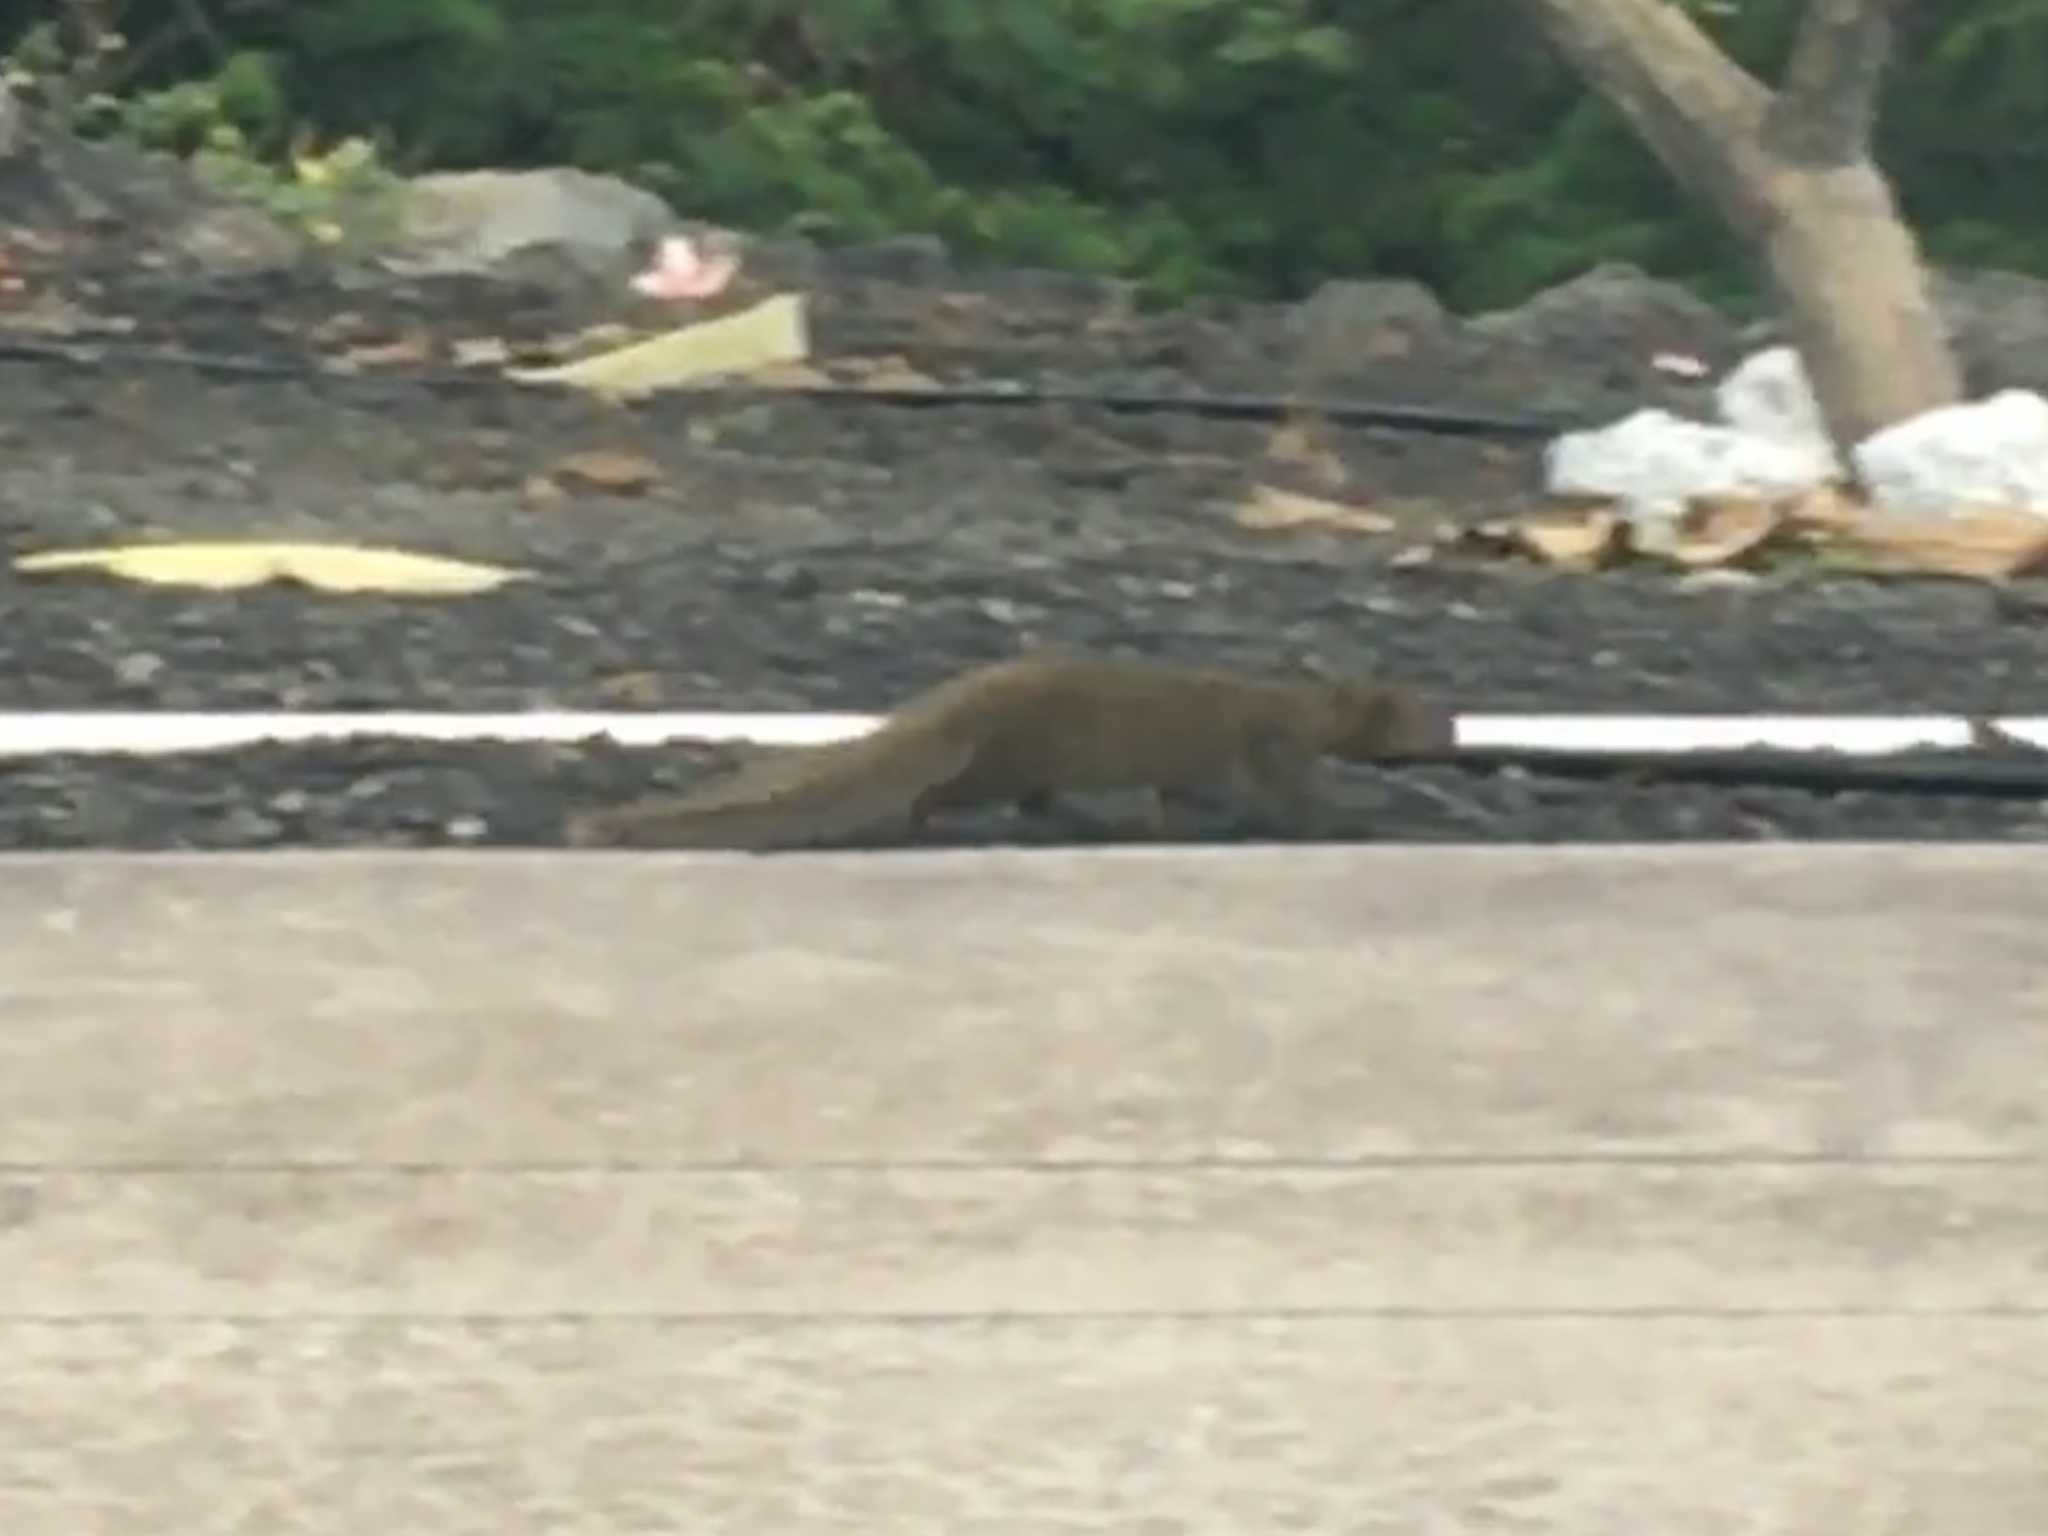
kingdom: Animalia
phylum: Chordata
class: Mammalia
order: Carnivora
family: Herpestidae
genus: Herpestes
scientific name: Herpestes javanicus
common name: Small asian mongoose
